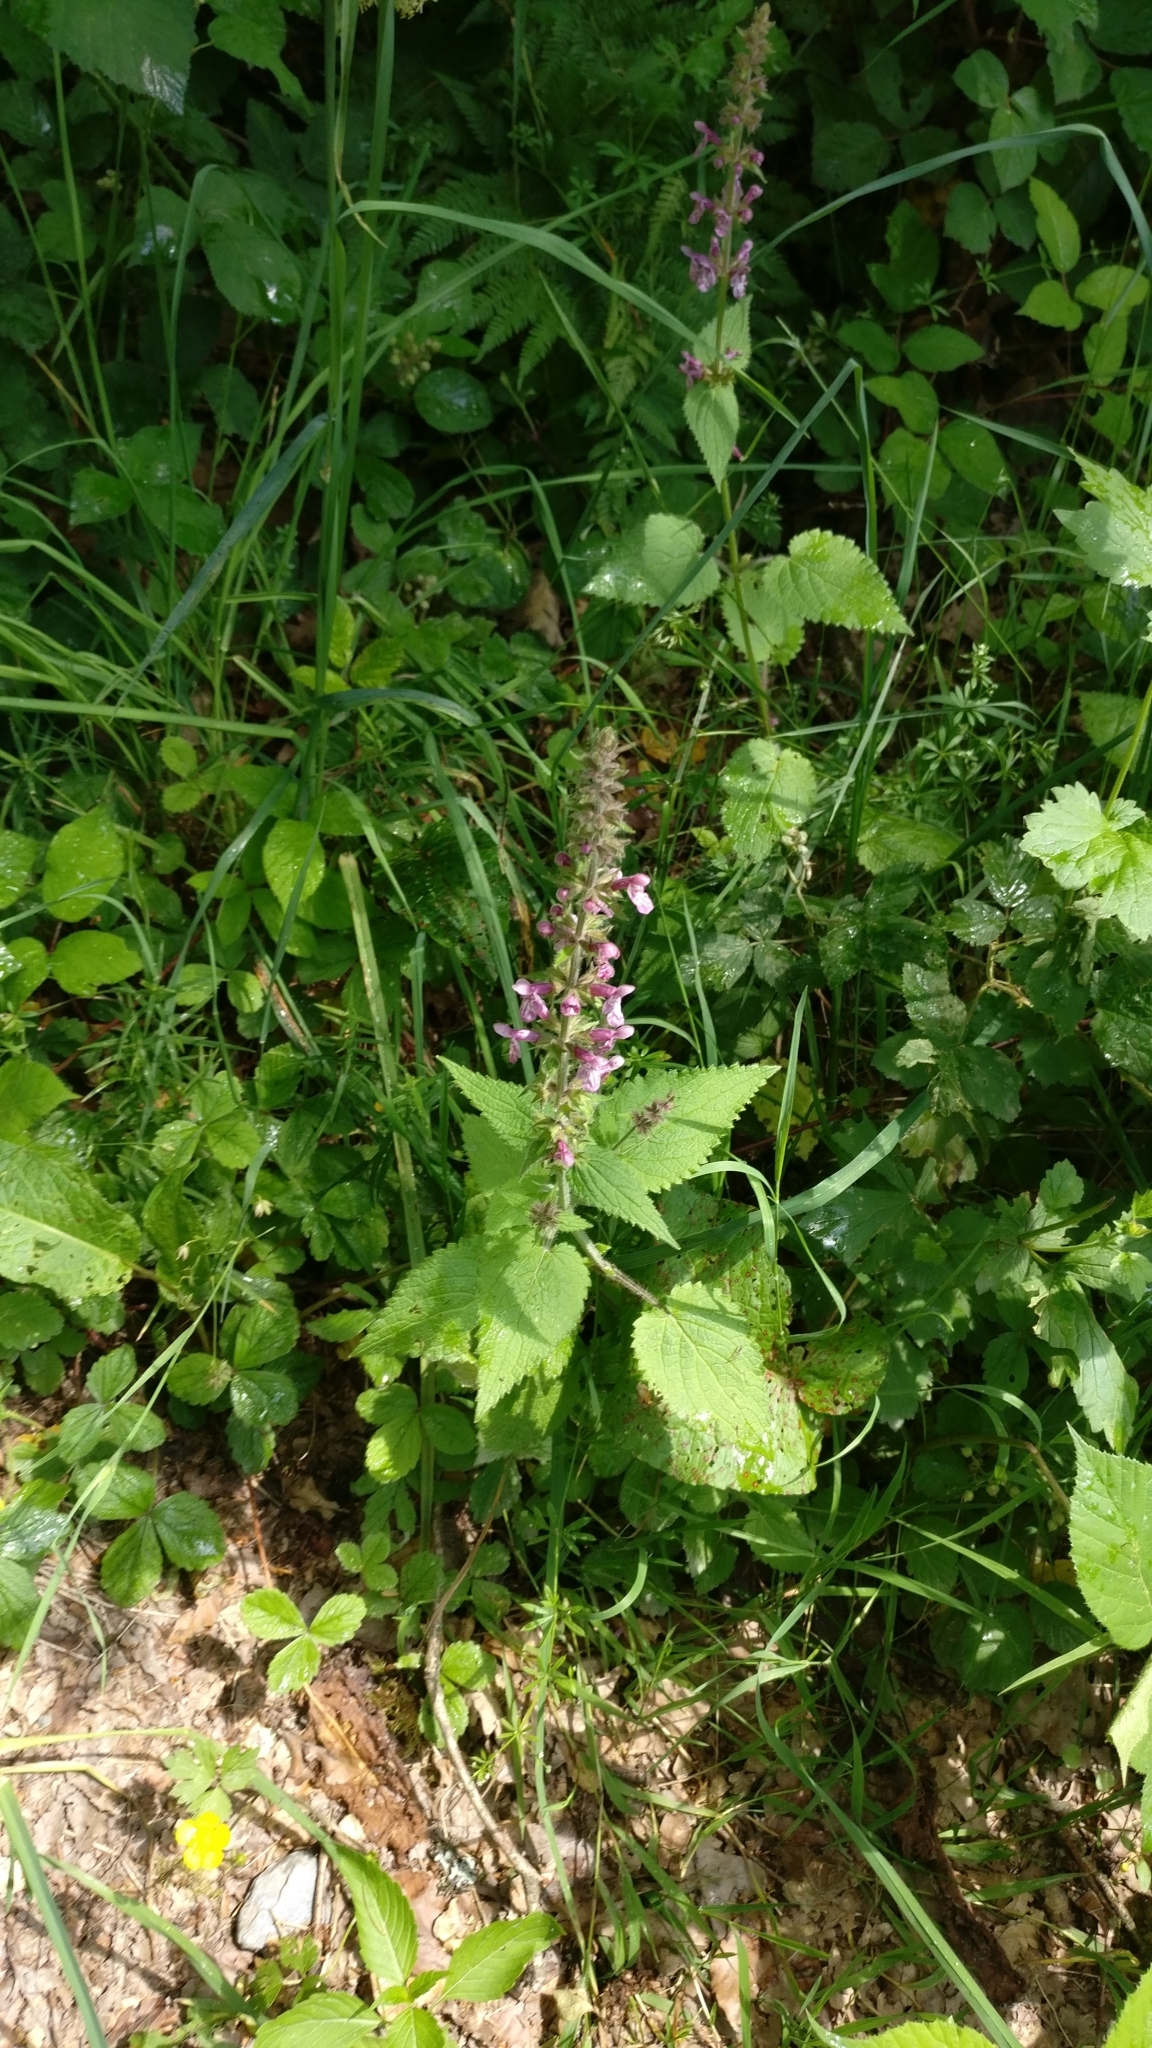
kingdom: Plantae
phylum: Tracheophyta
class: Magnoliopsida
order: Lamiales
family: Lamiaceae
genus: Stachys
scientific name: Stachys sylvatica
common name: Hedge woundwort
